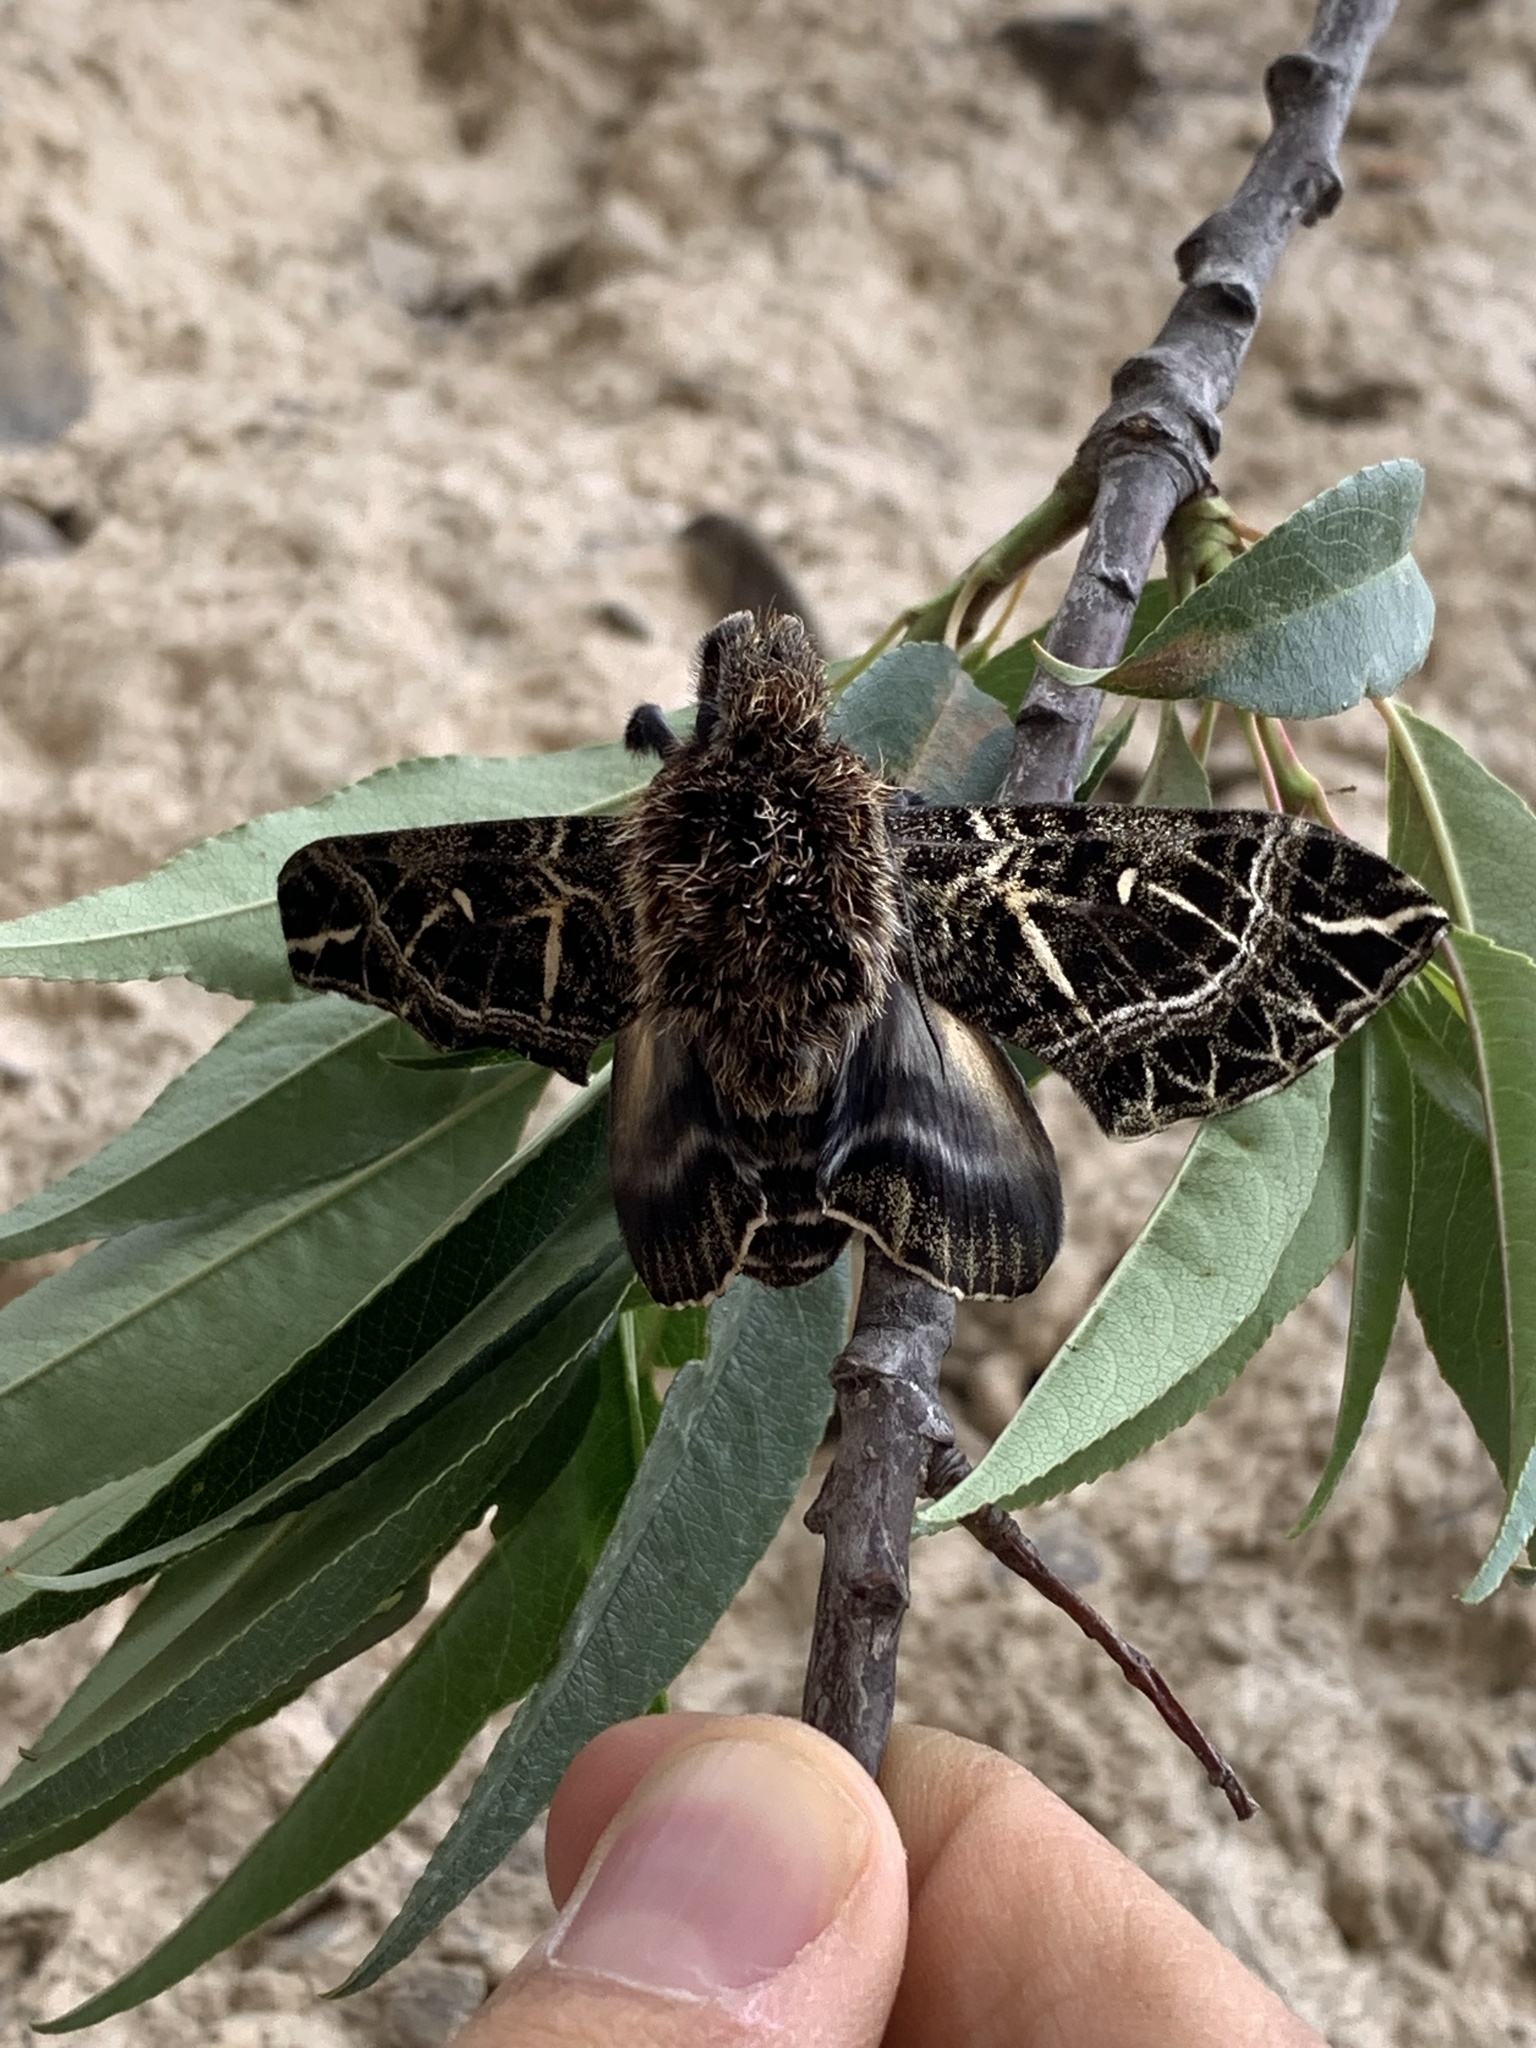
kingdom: Animalia
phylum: Arthropoda
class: Insecta
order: Lepidoptera
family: Sphingidae
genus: Euryglottis
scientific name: Euryglottis aper
